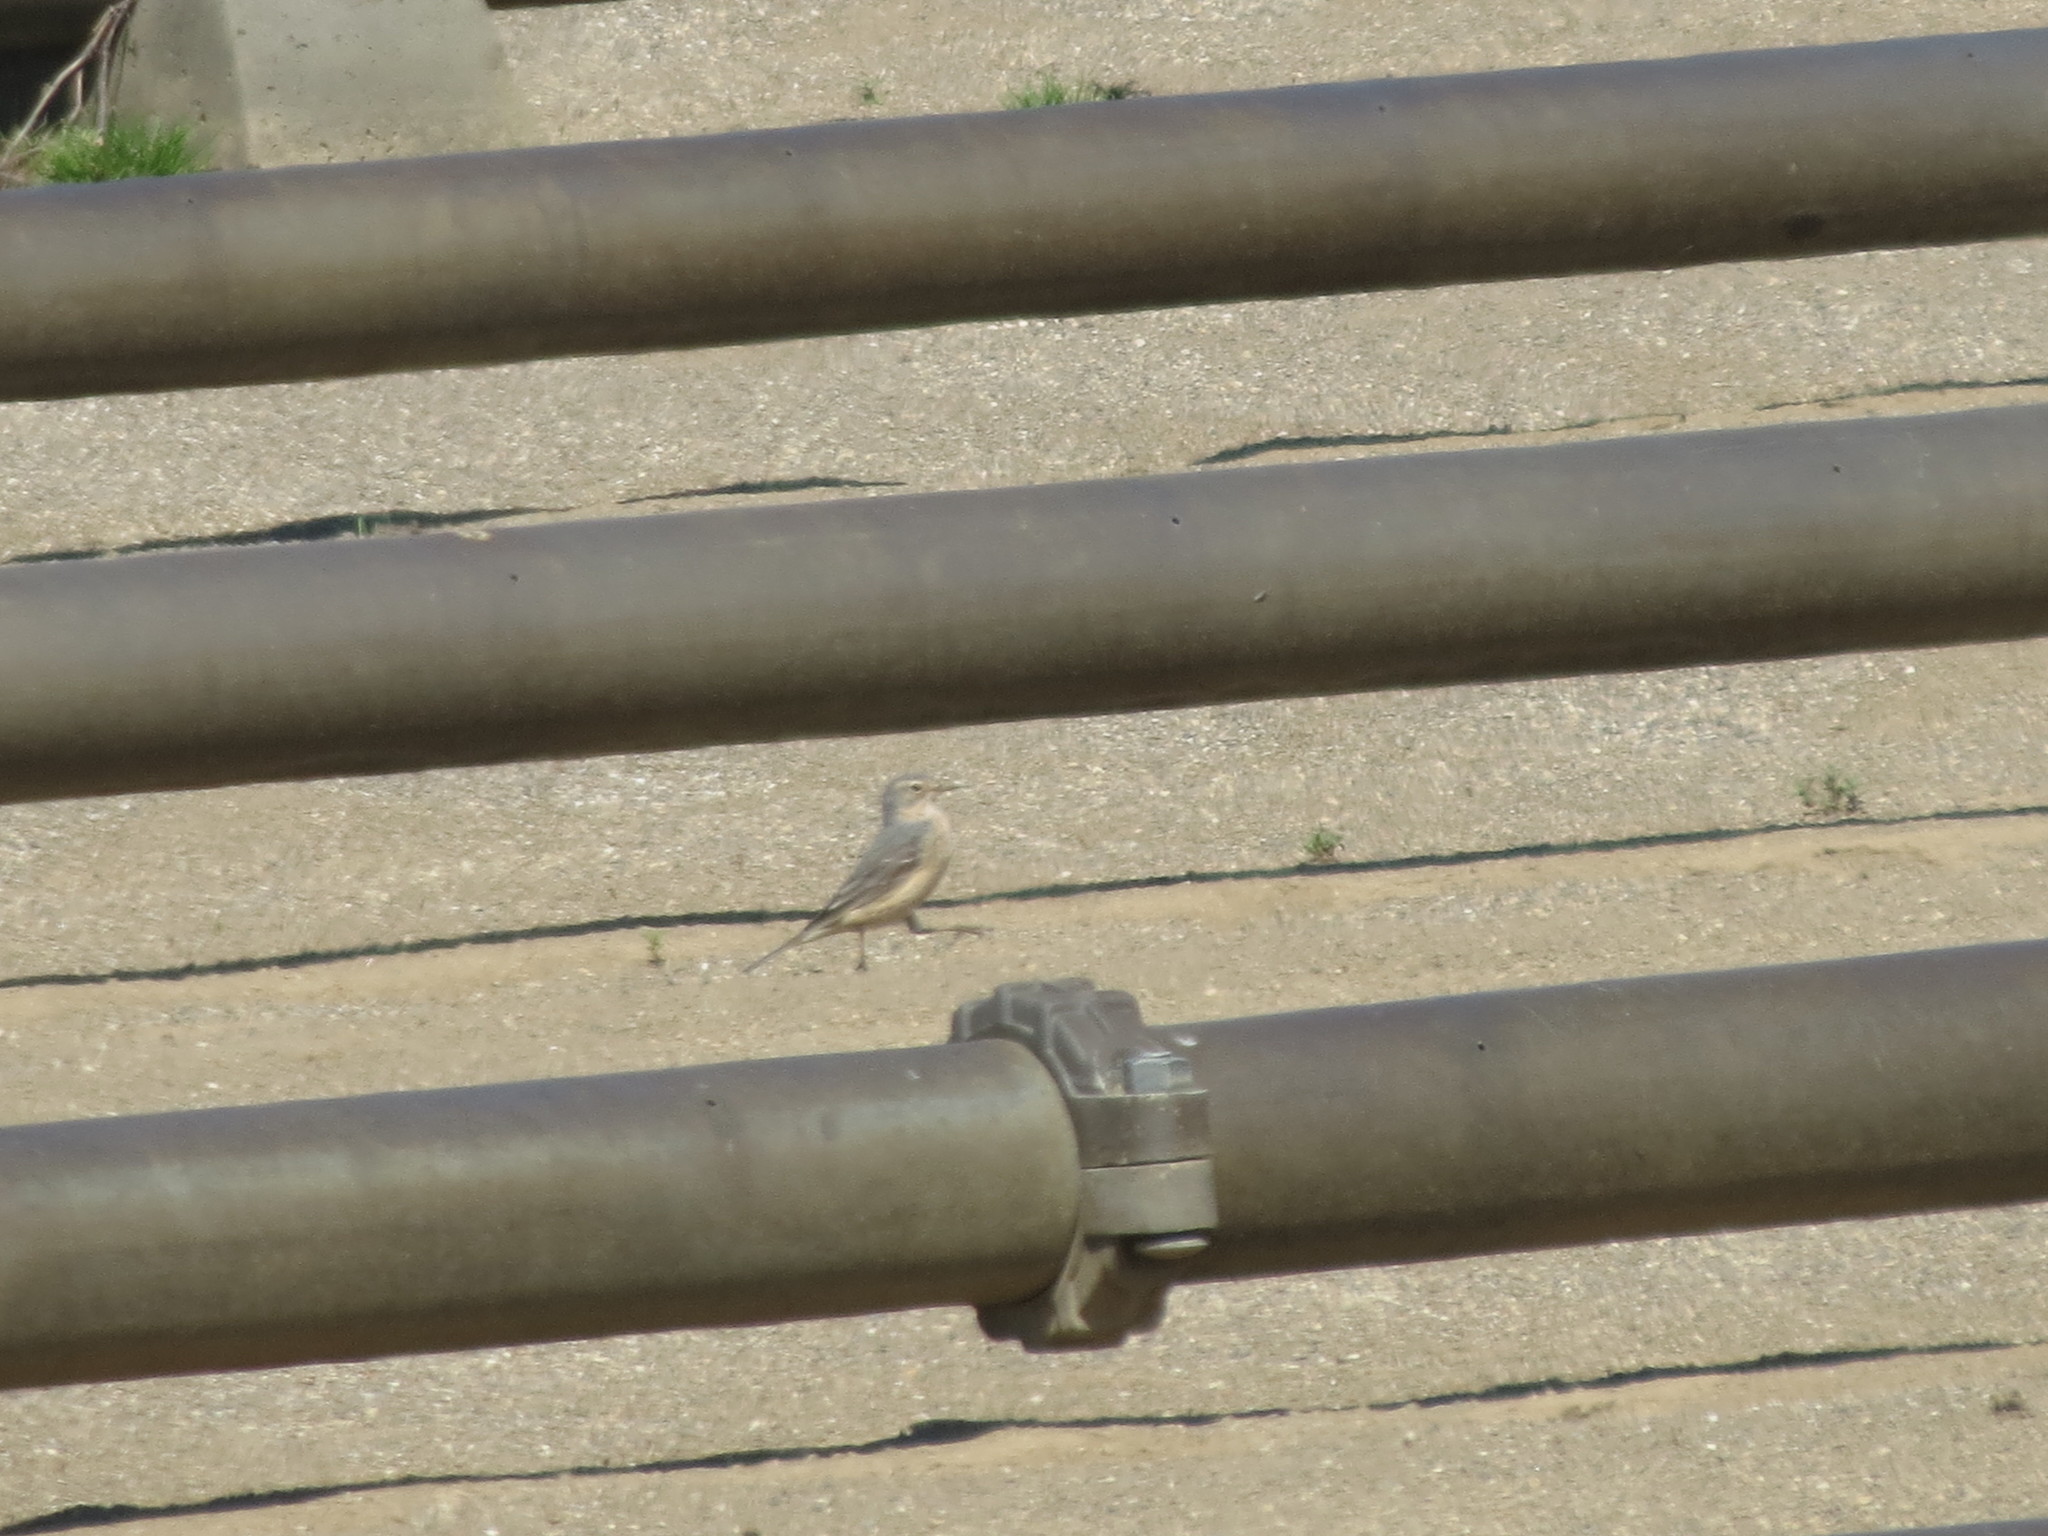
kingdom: Animalia
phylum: Chordata
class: Aves
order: Passeriformes
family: Motacillidae
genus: Anthus
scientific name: Anthus rubescens
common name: Buff-bellied pipit
